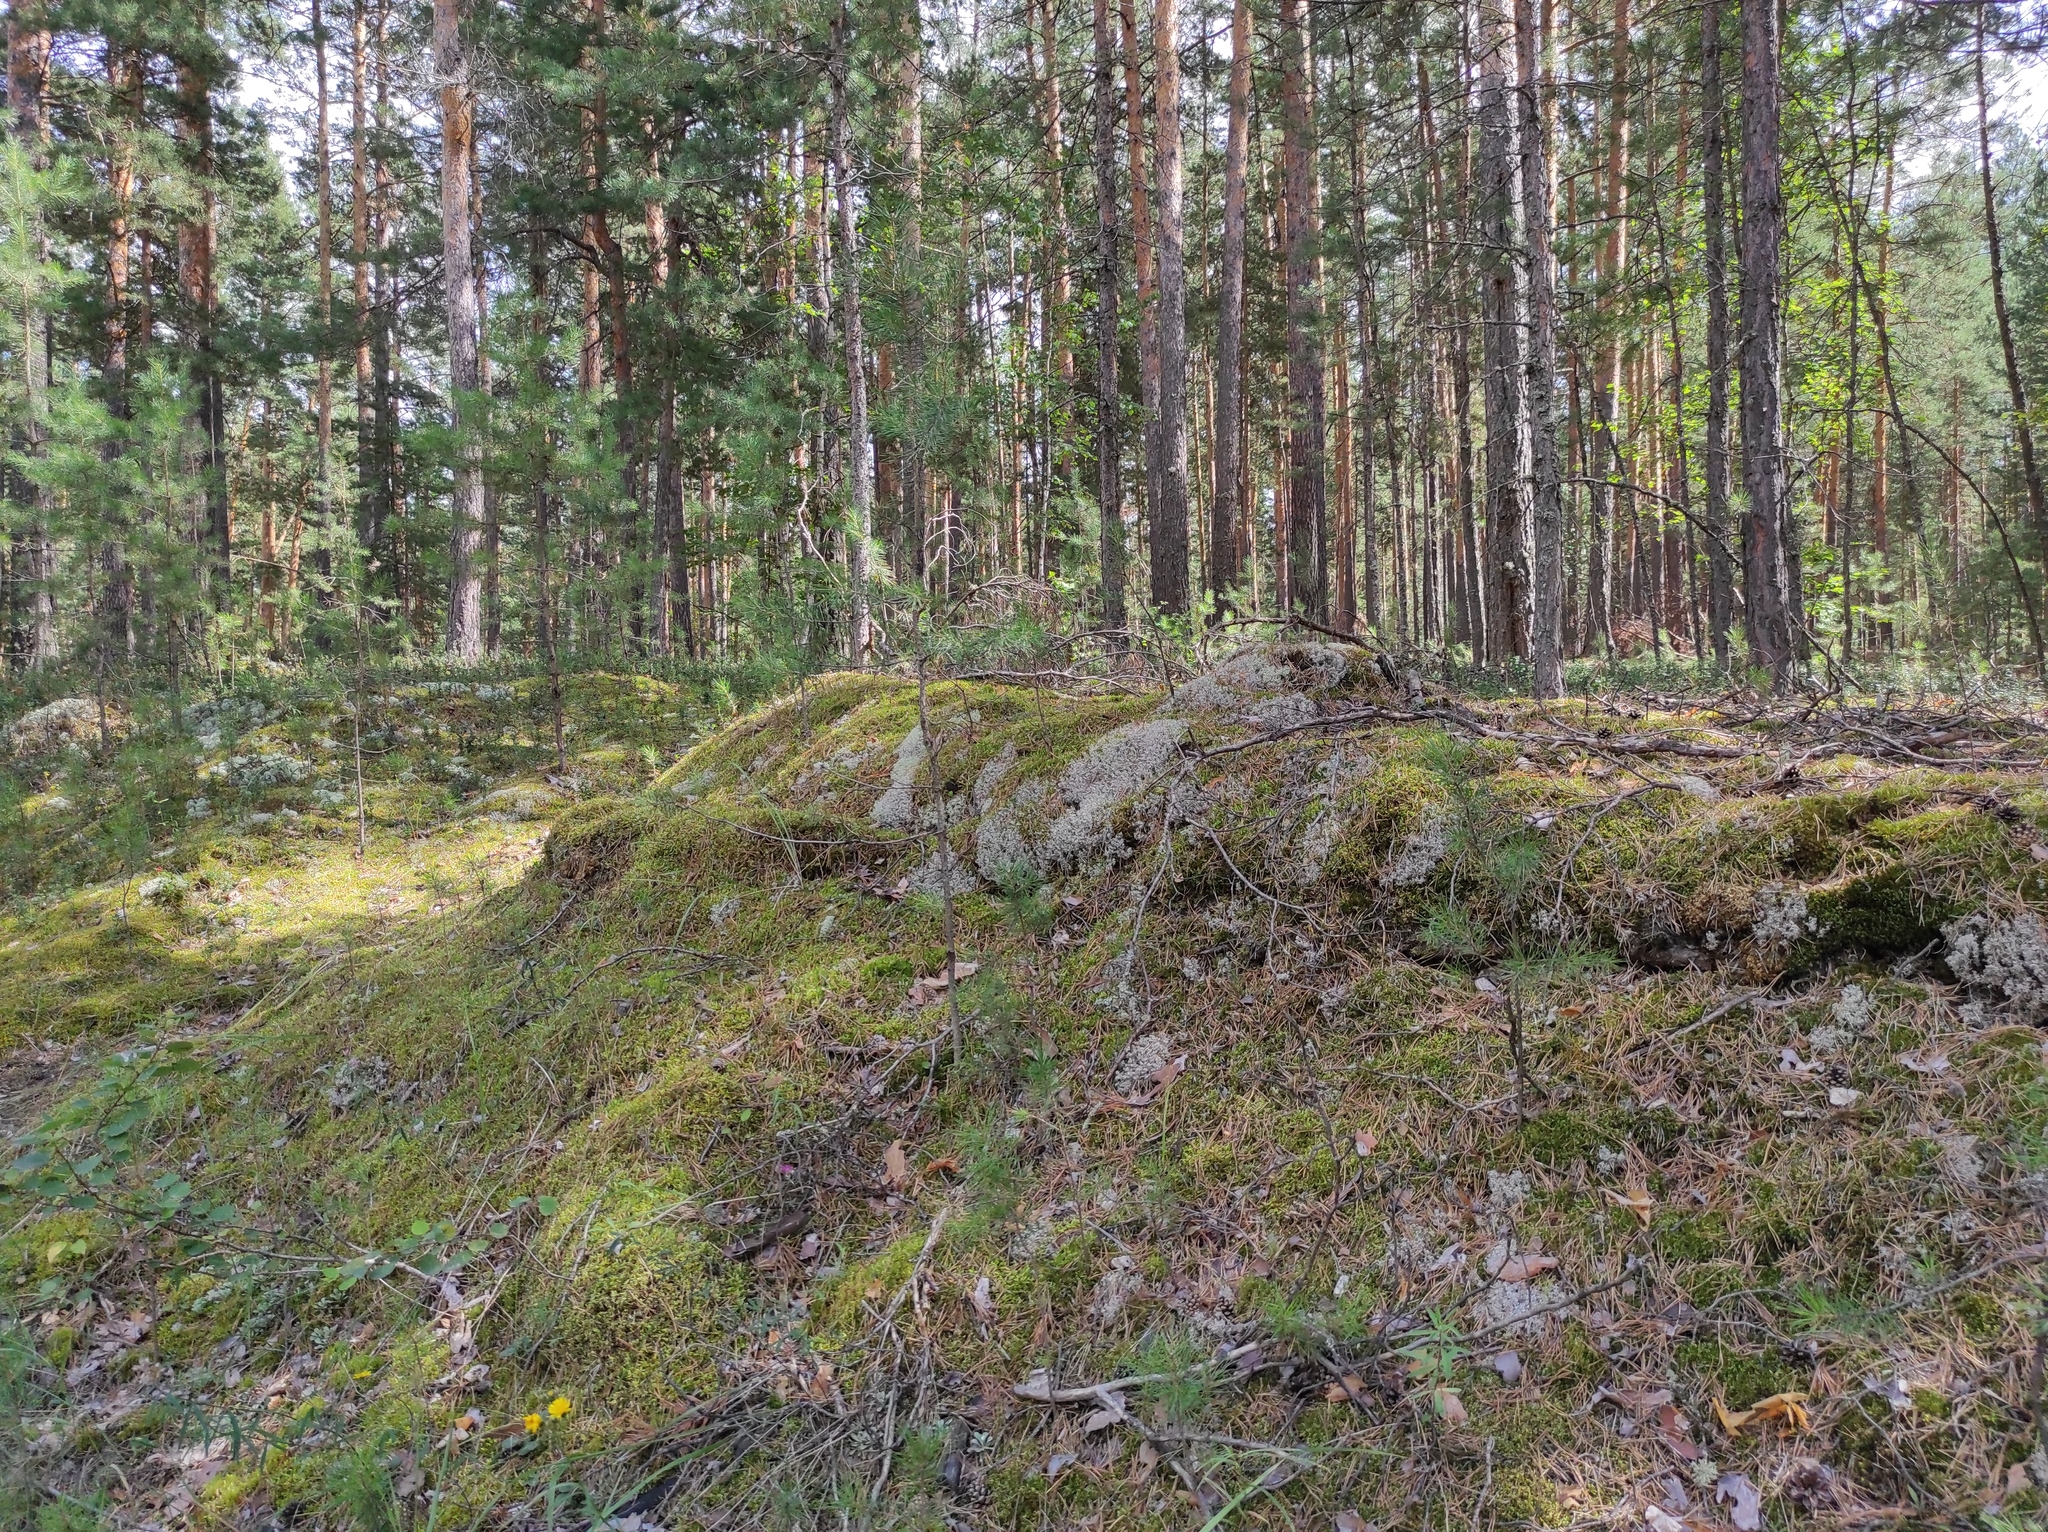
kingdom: Plantae
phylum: Tracheophyta
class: Pinopsida
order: Pinales
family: Pinaceae
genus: Pinus
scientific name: Pinus sylvestris
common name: Scots pine
